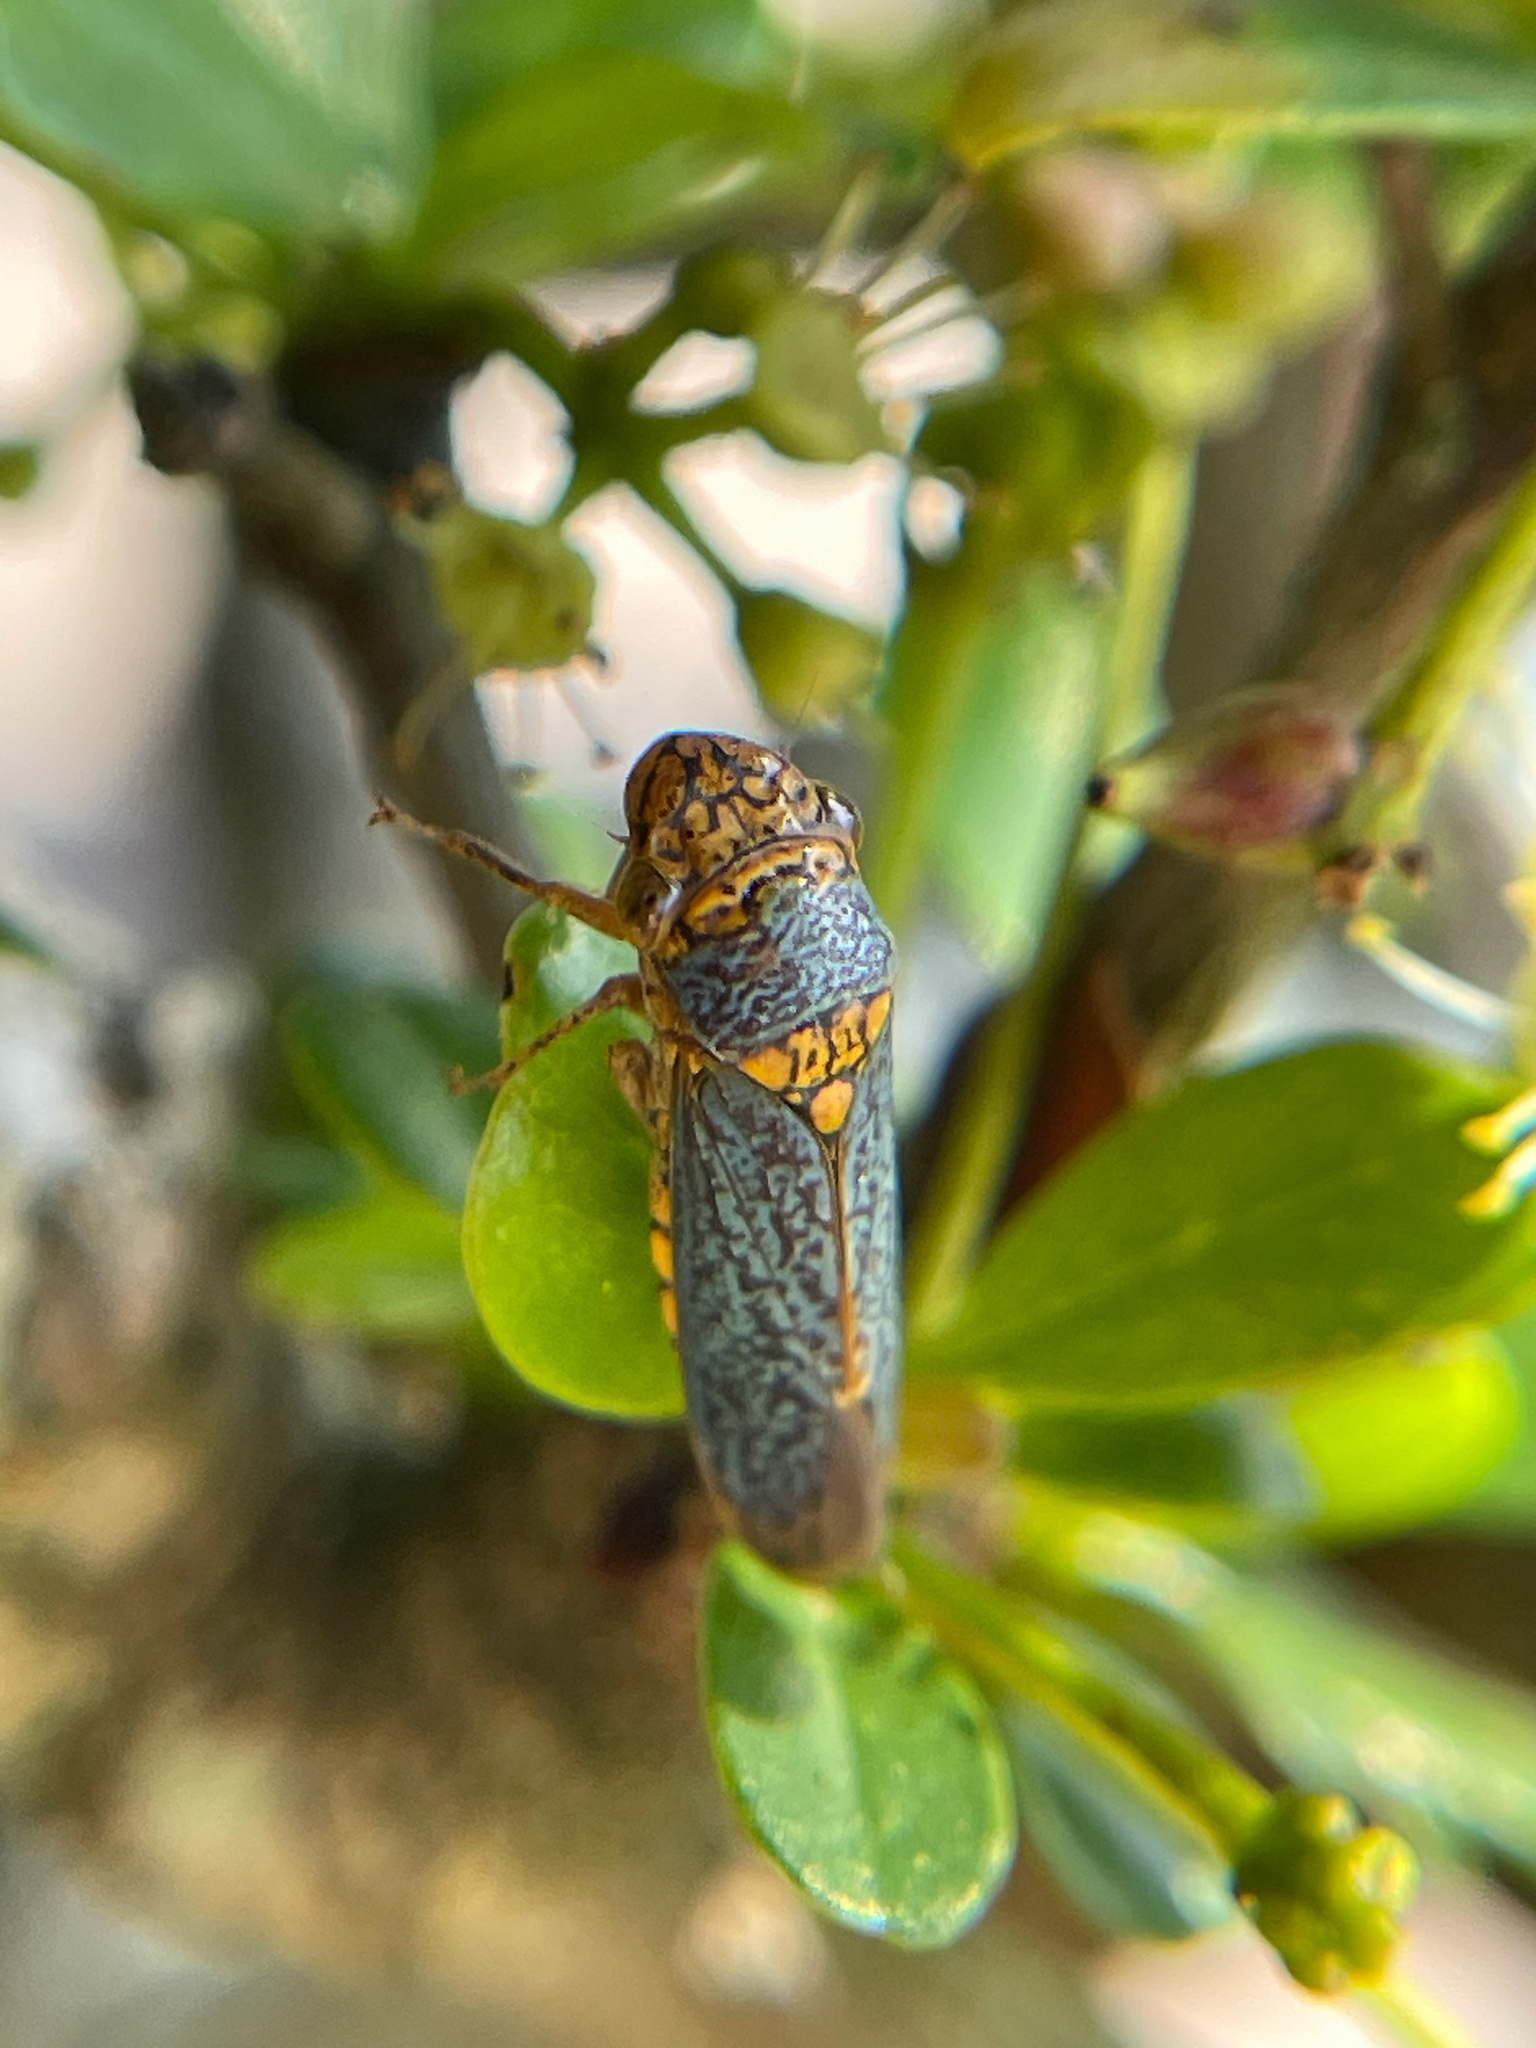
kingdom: Animalia
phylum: Arthropoda
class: Insecta
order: Hemiptera
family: Cicadellidae
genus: Oncometopia
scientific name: Oncometopia orbona
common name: Broad-headed sharpshooter
